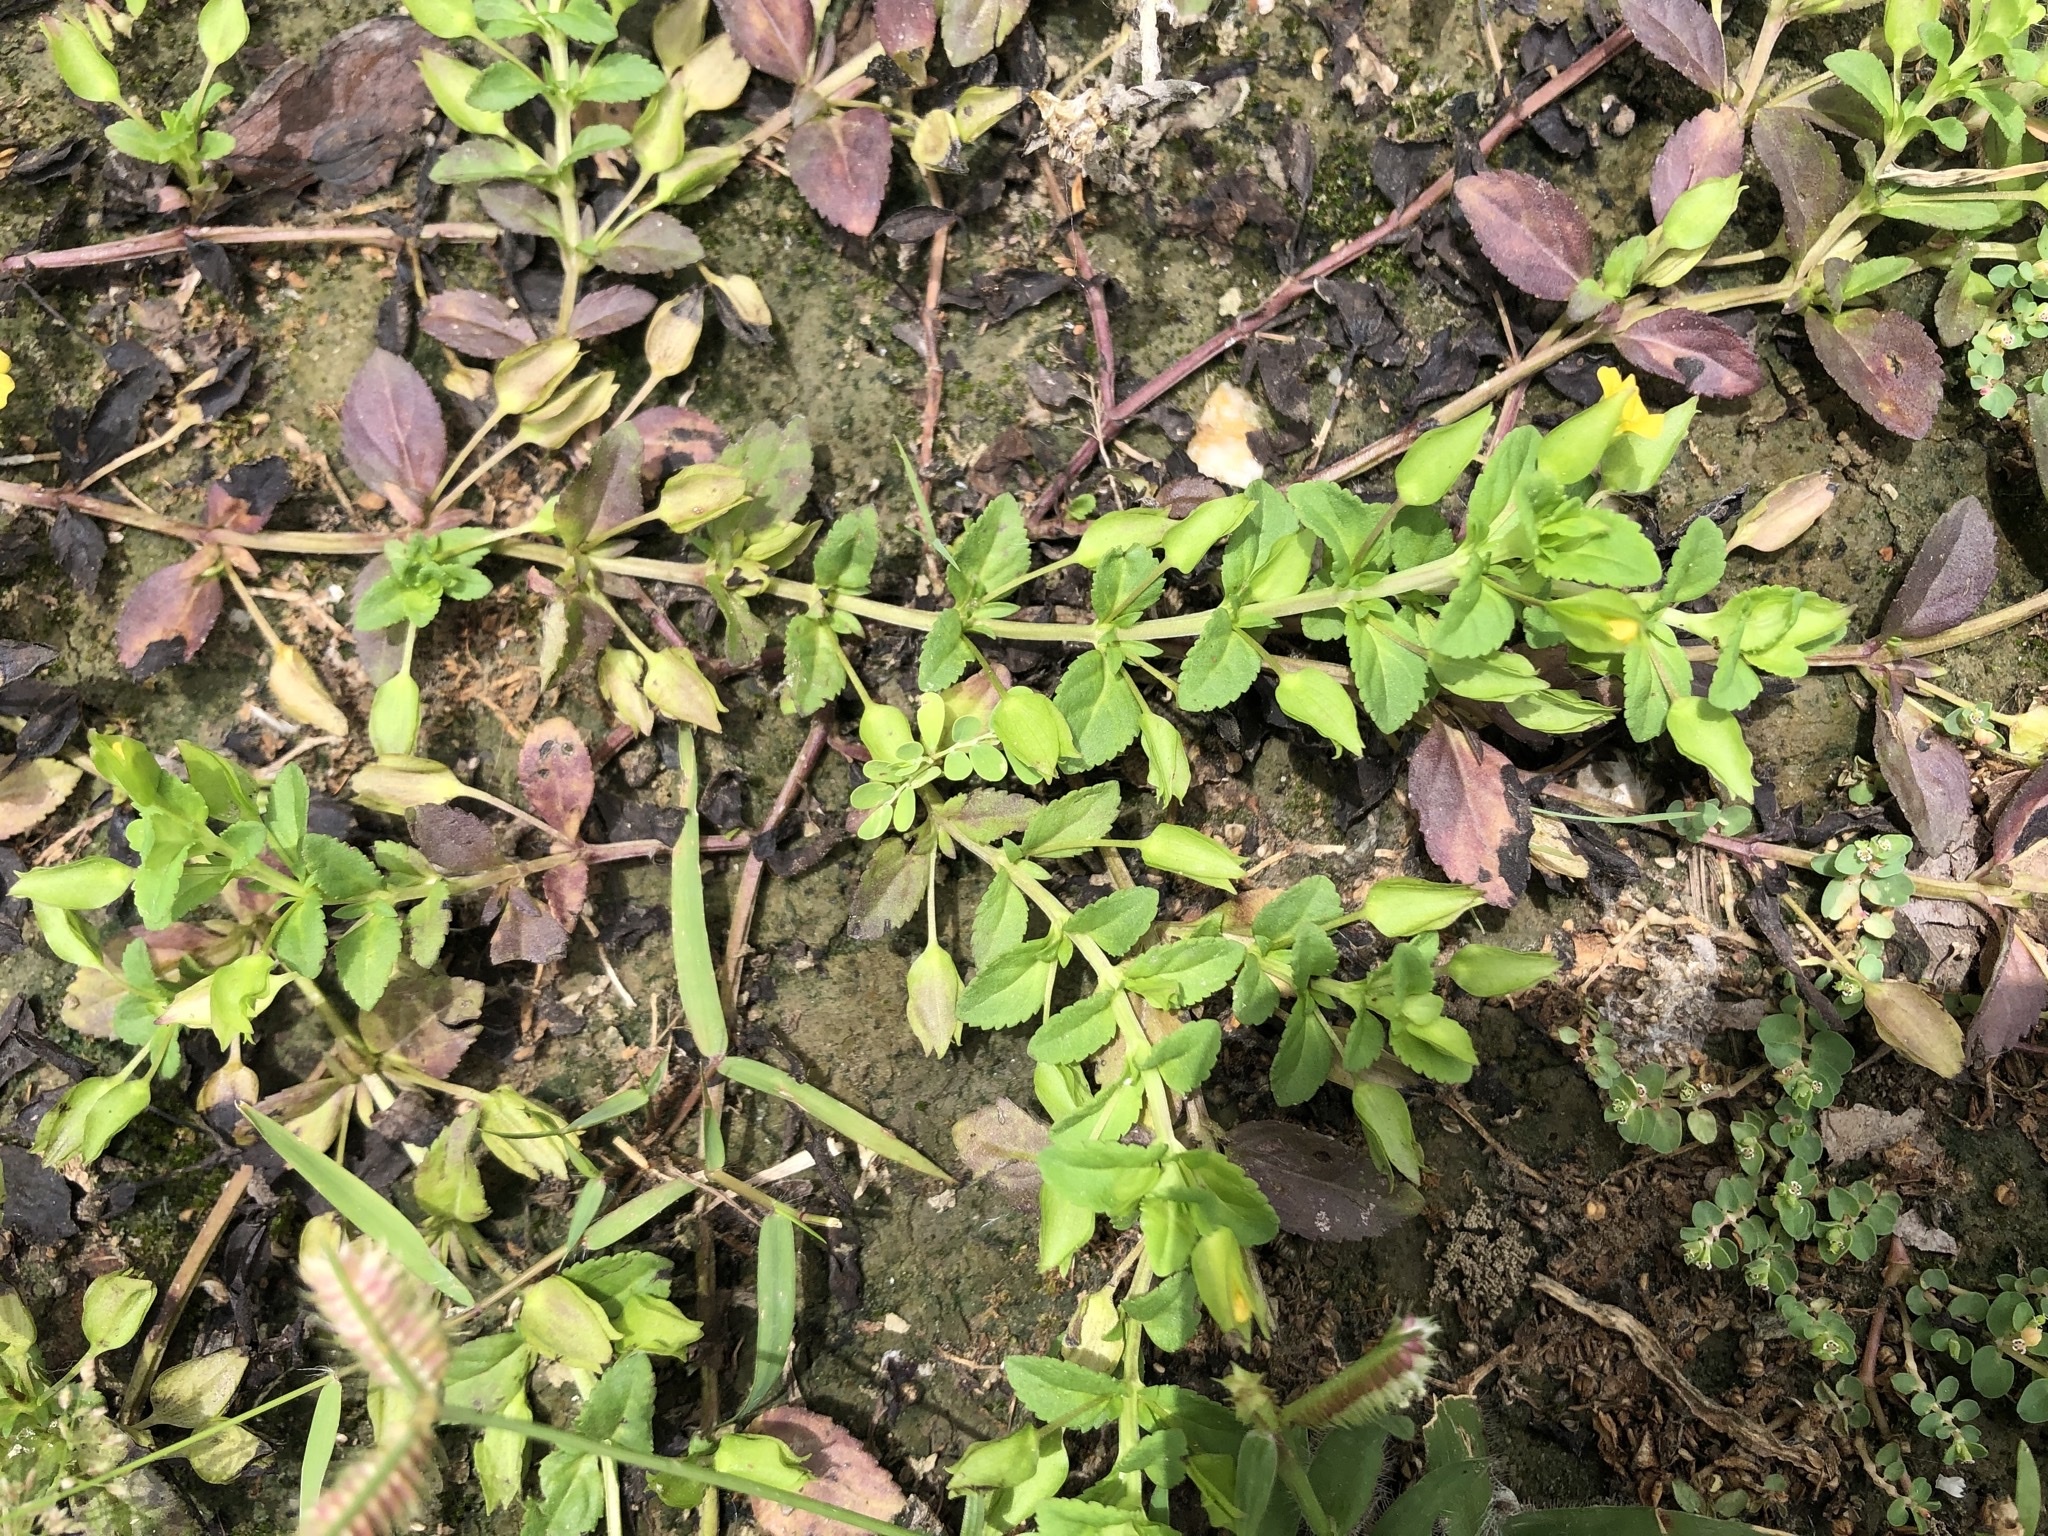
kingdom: Plantae
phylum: Tracheophyta
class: Magnoliopsida
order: Lamiales
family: Plantaginaceae
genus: Mecardonia
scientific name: Mecardonia procumbens
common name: Baby jump-up
